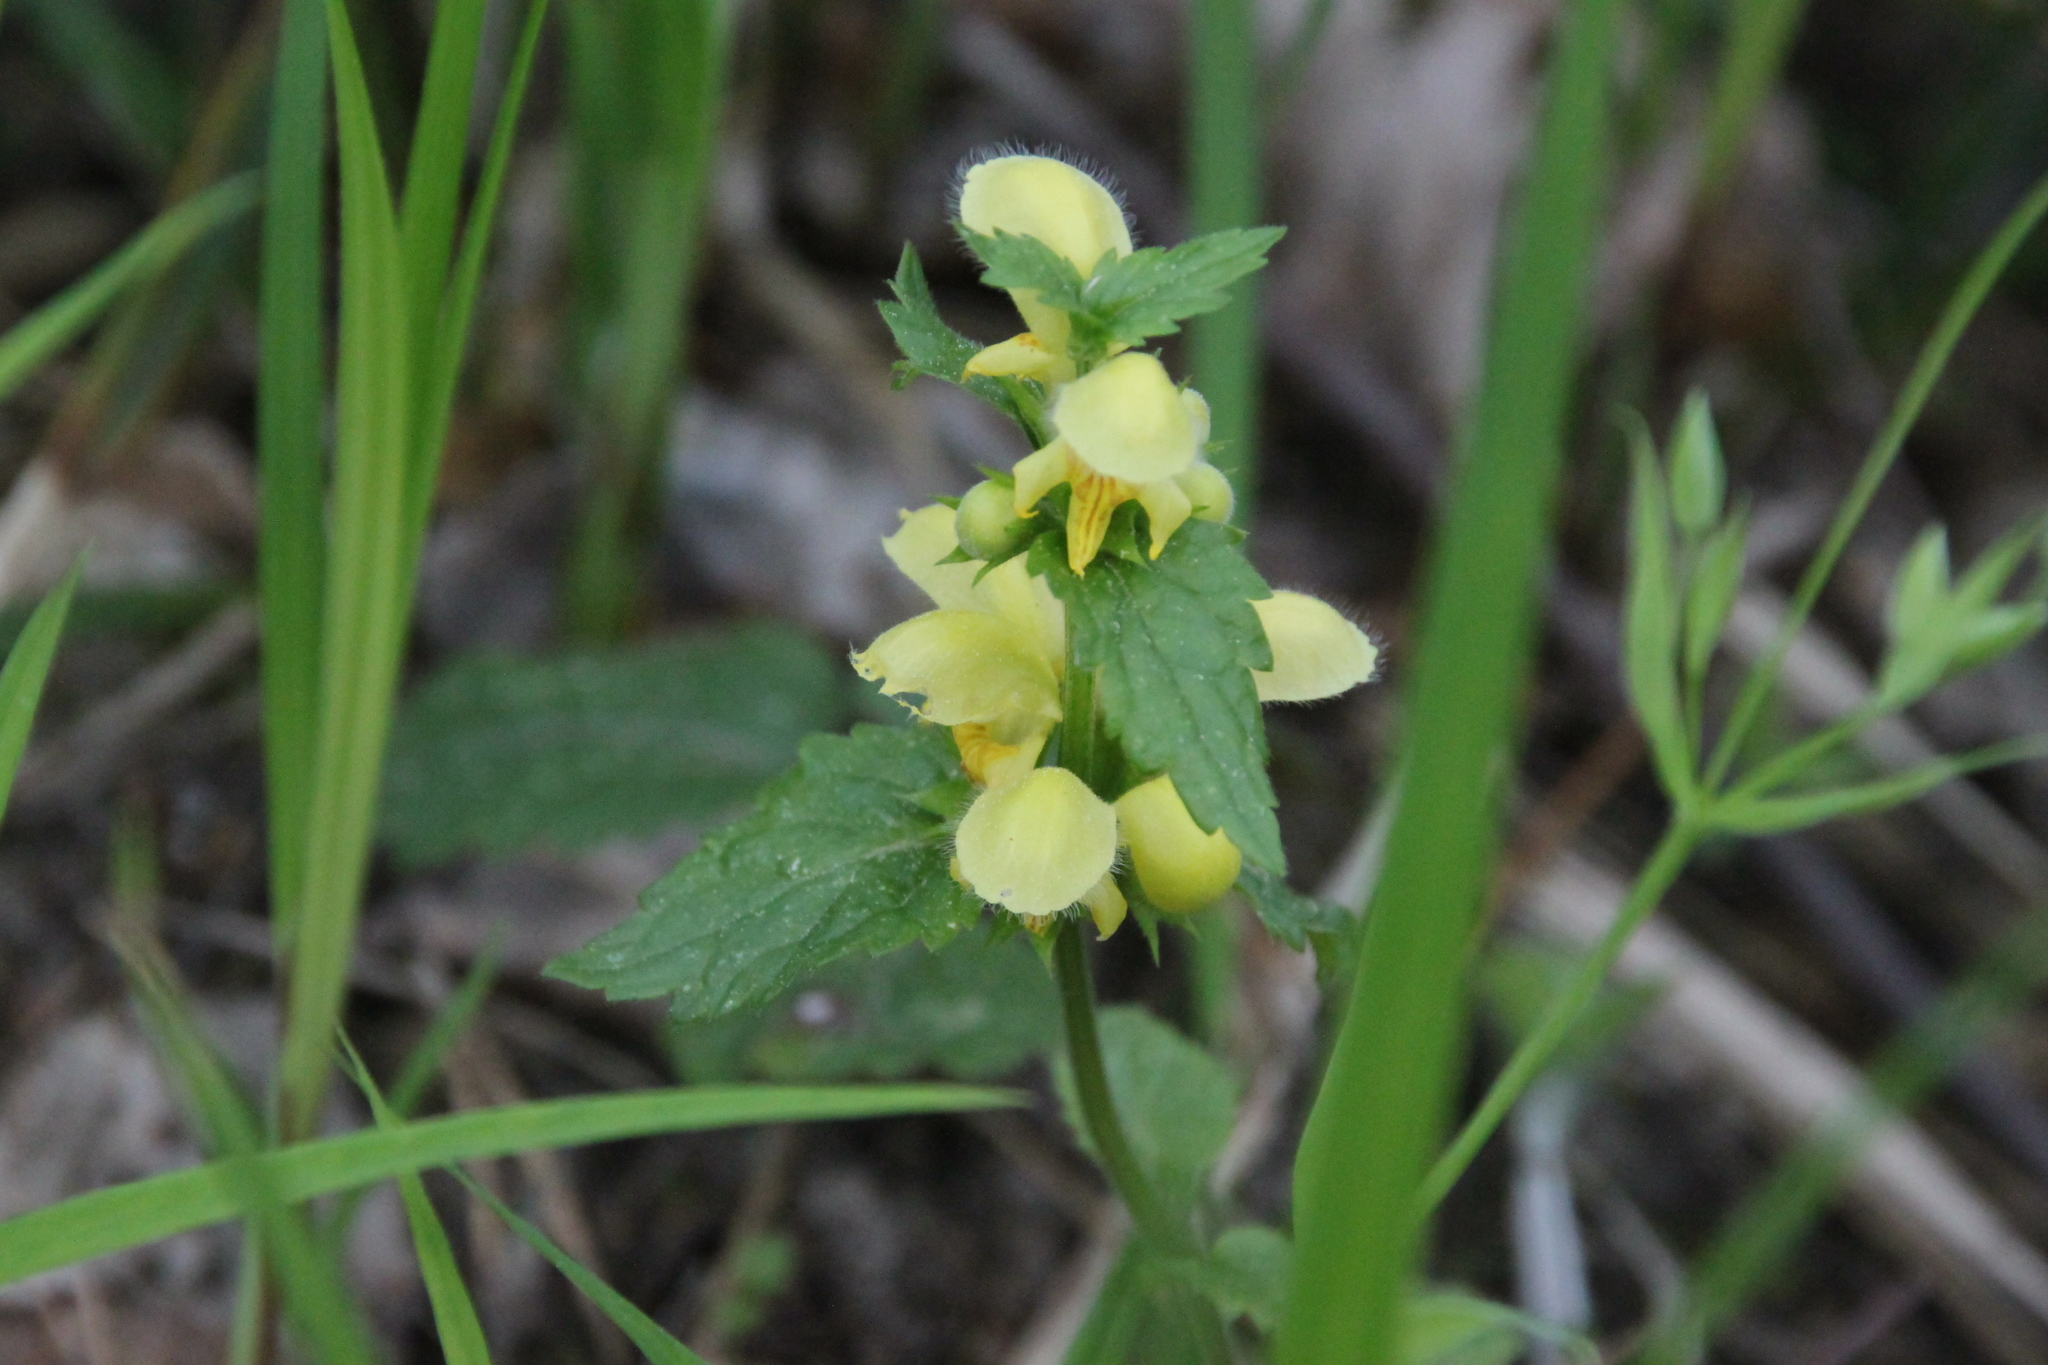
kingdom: Plantae
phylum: Tracheophyta
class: Magnoliopsida
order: Lamiales
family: Lamiaceae
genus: Lamium
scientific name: Lamium galeobdolon
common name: Yellow archangel
